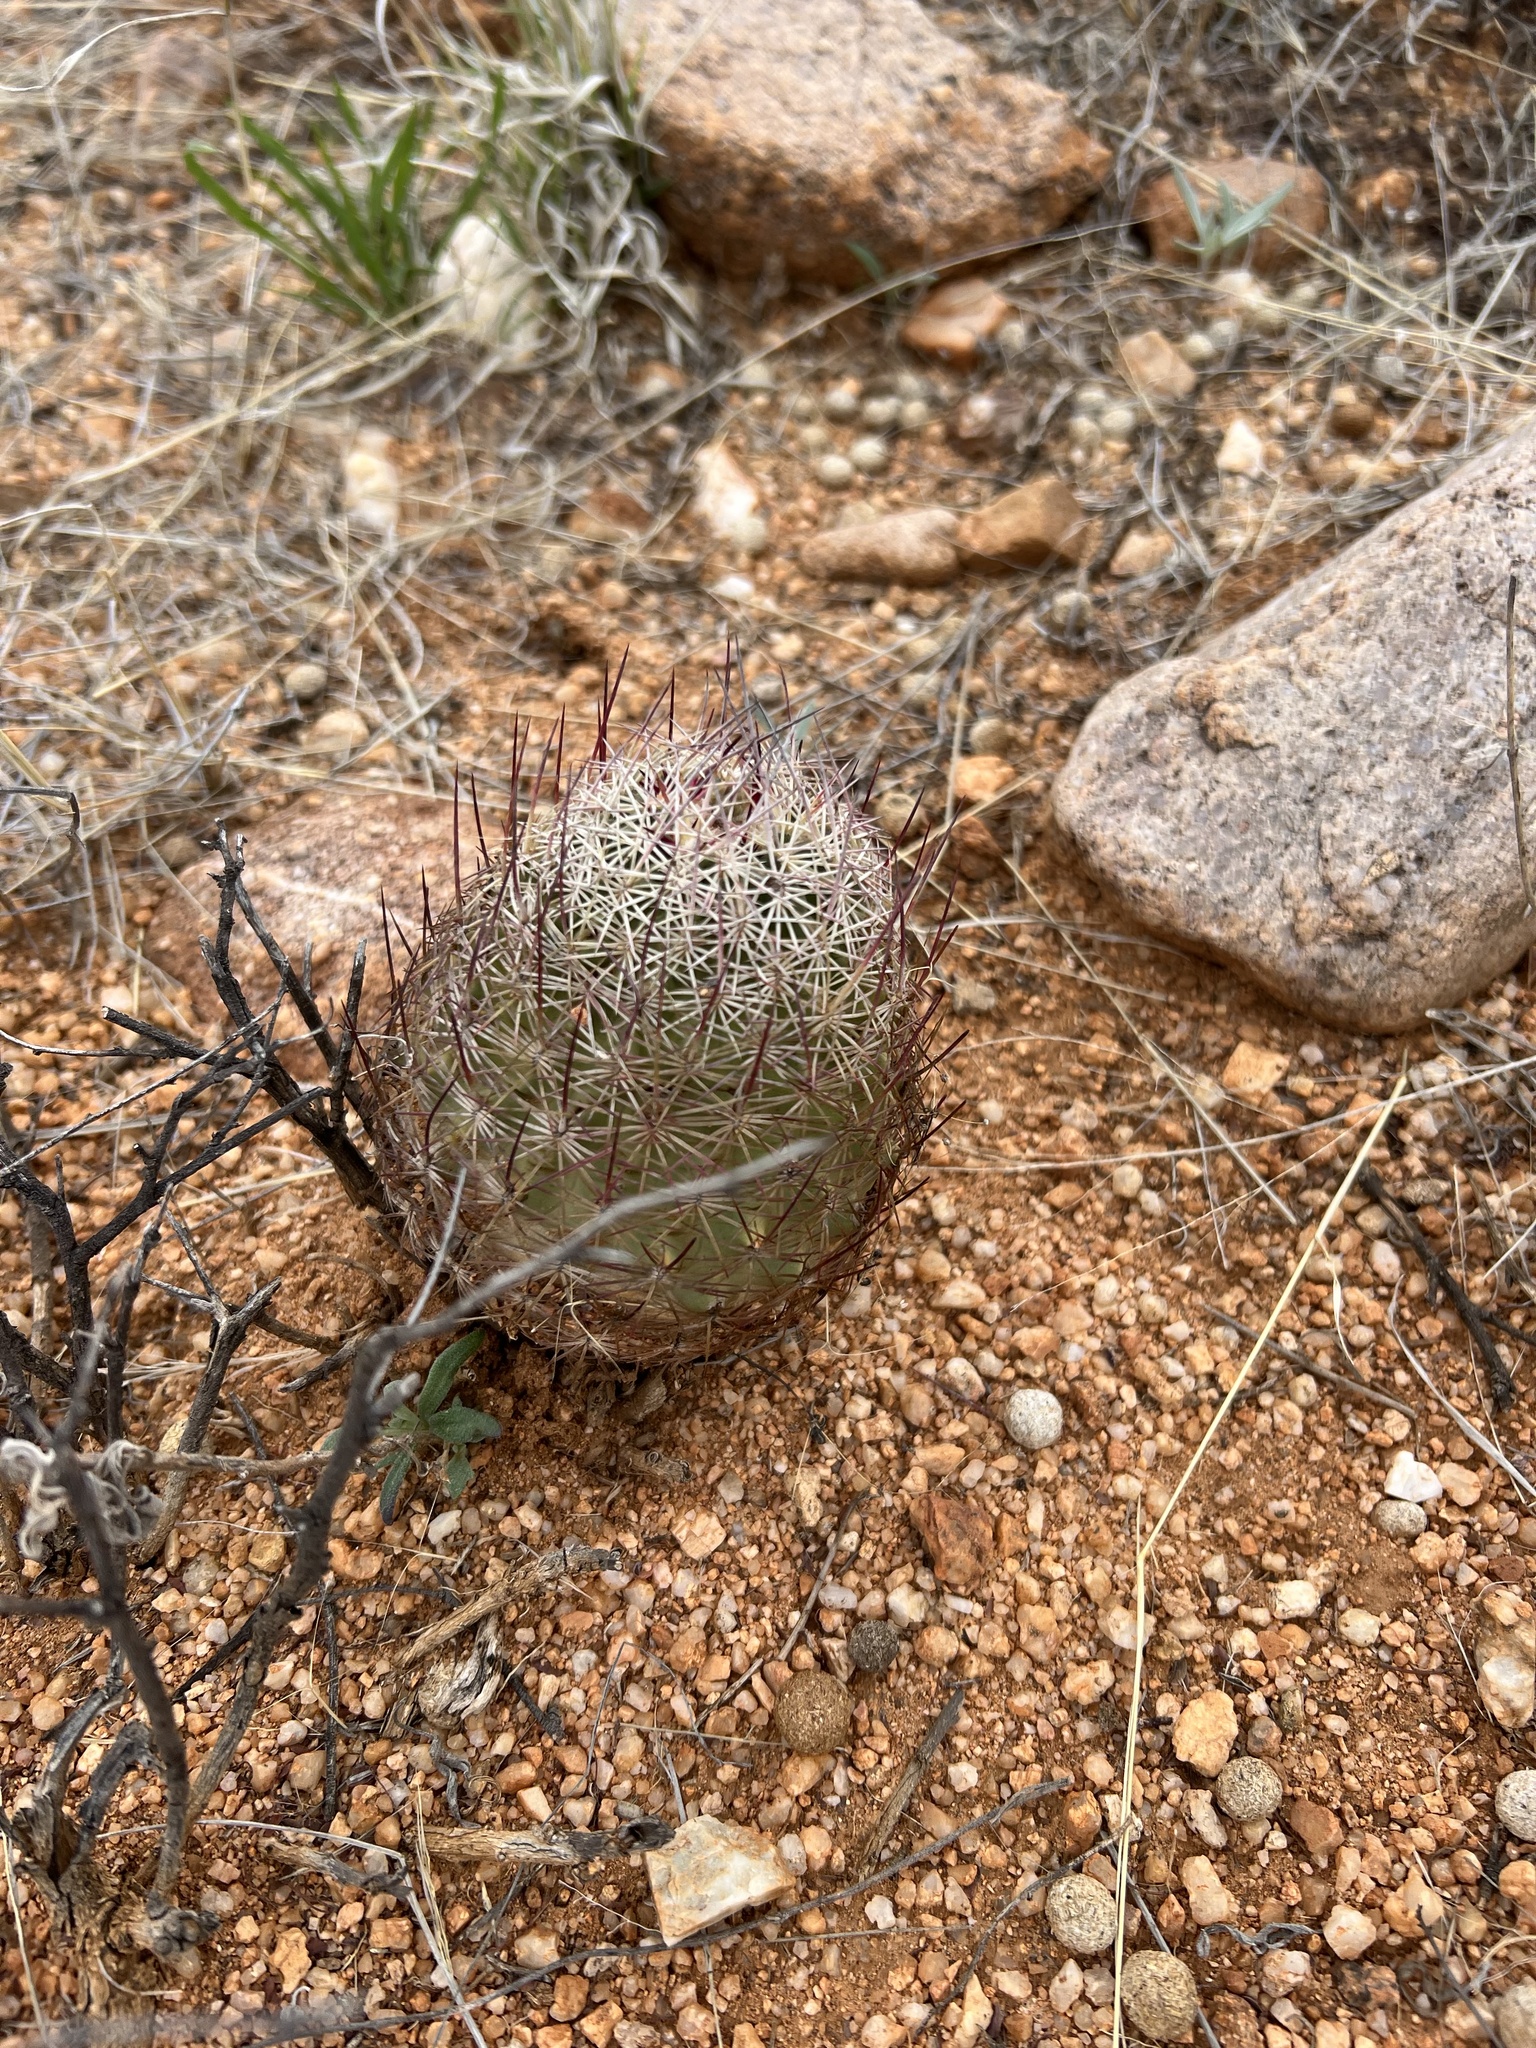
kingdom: Plantae
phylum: Tracheophyta
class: Magnoliopsida
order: Caryophyllales
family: Cactaceae
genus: Sclerocactus
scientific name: Sclerocactus johnsonii
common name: Eight-spine fishhook cactus
